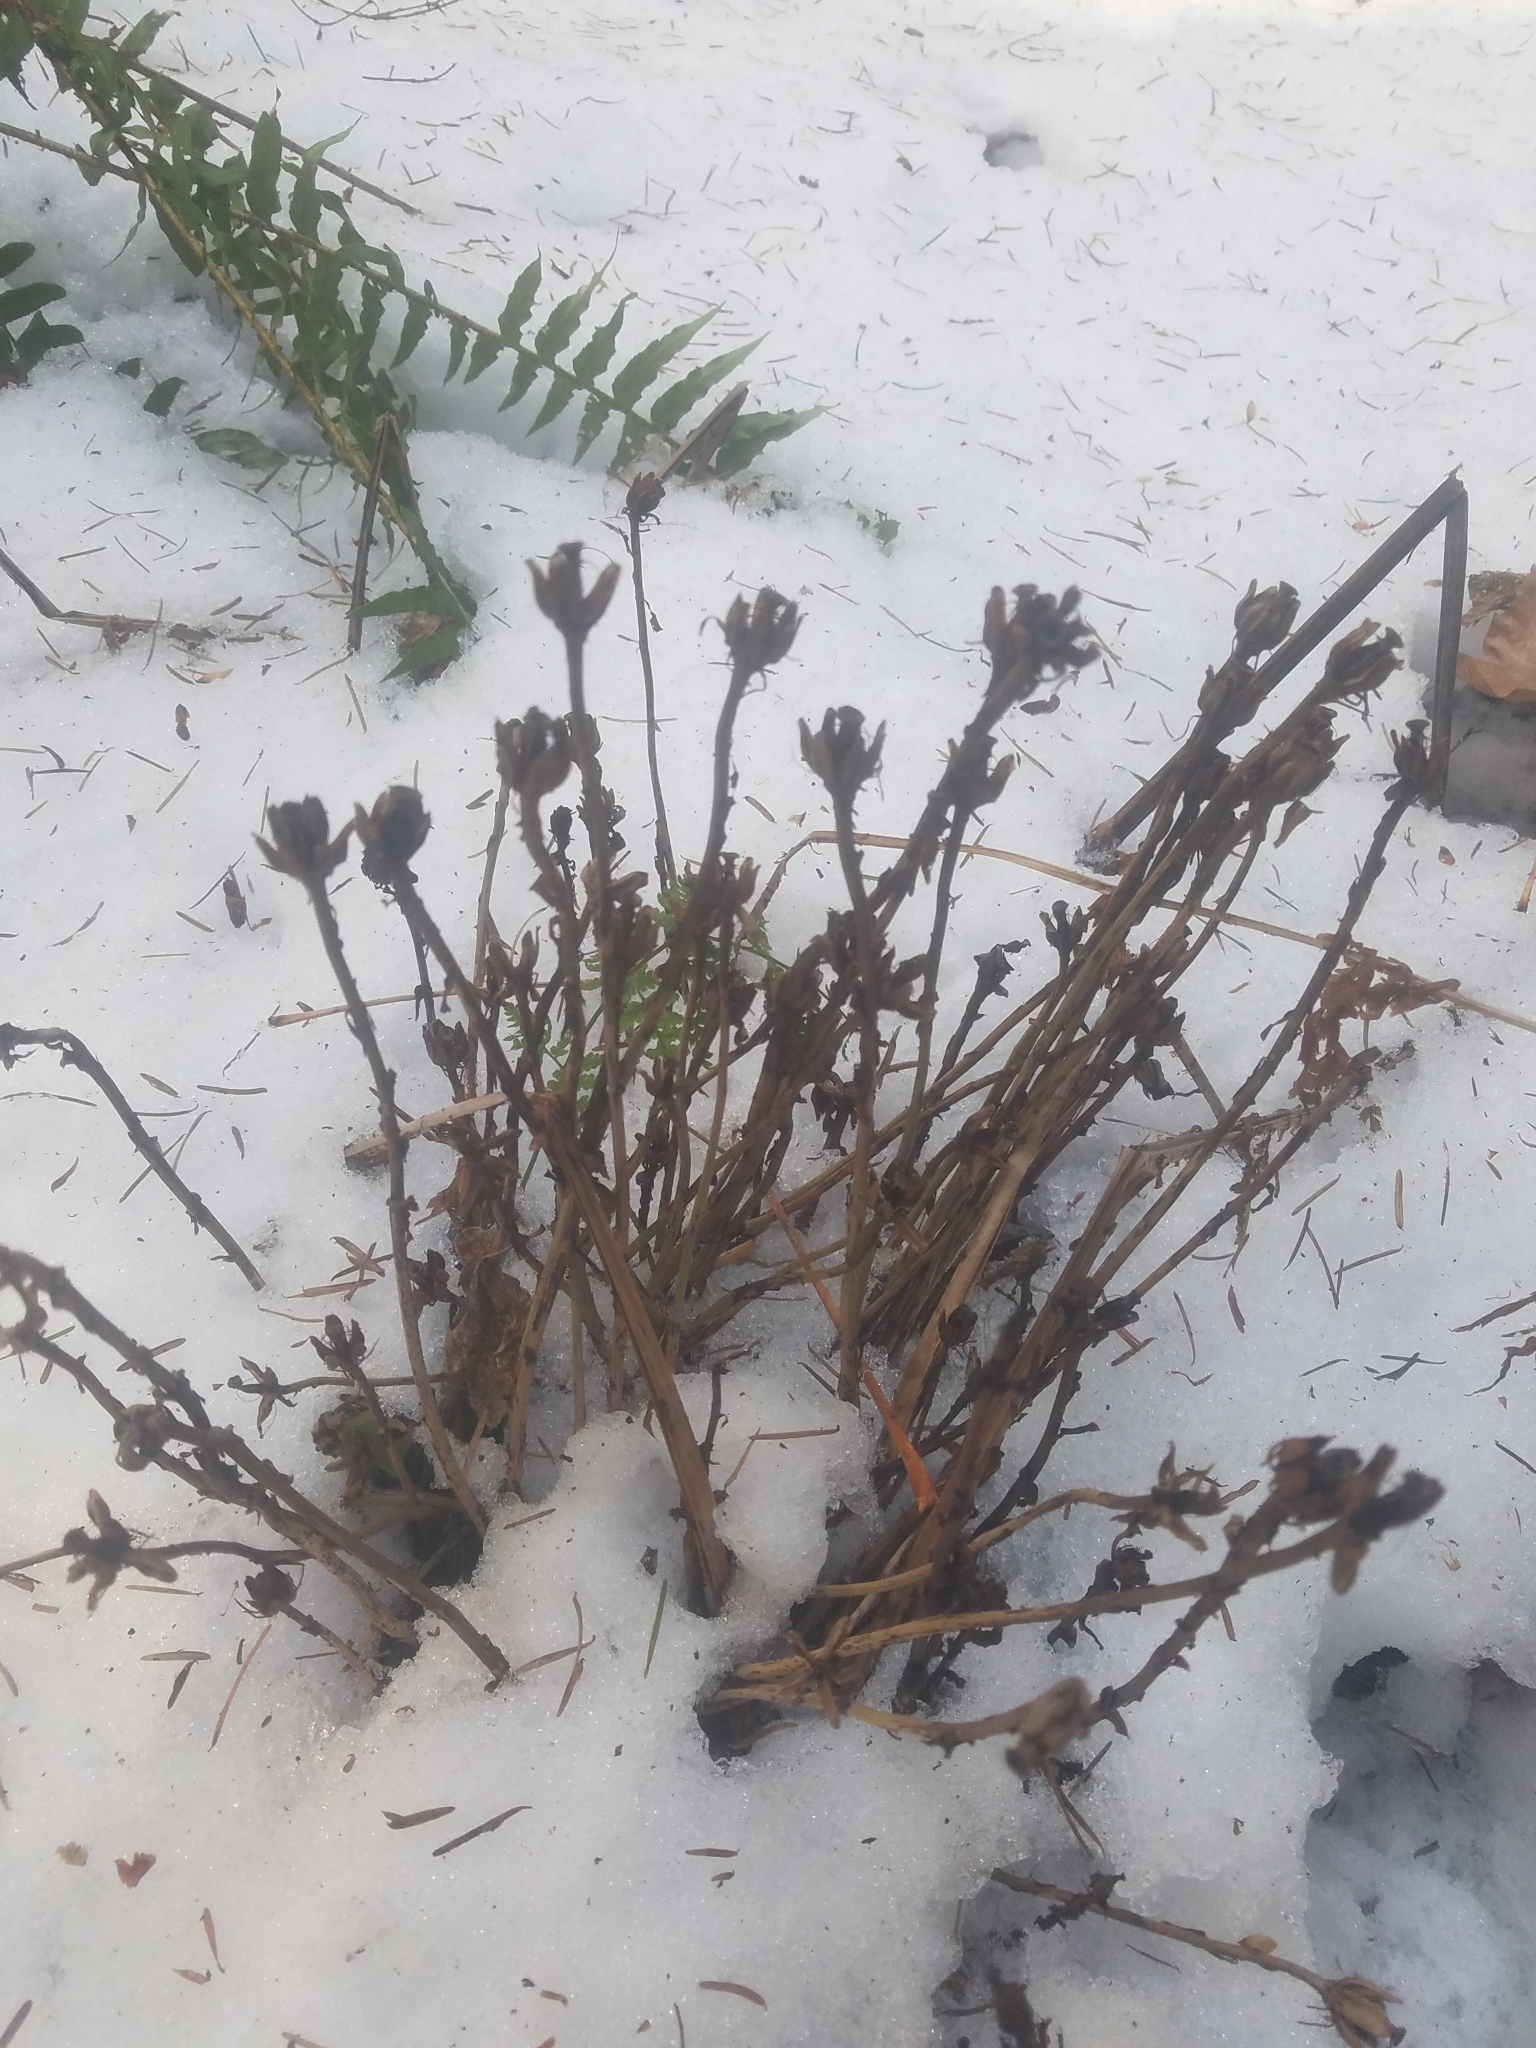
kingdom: Plantae
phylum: Tracheophyta
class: Magnoliopsida
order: Ericales
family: Ericaceae
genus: Monotropa
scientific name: Monotropa uniflora
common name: Convulsion root
